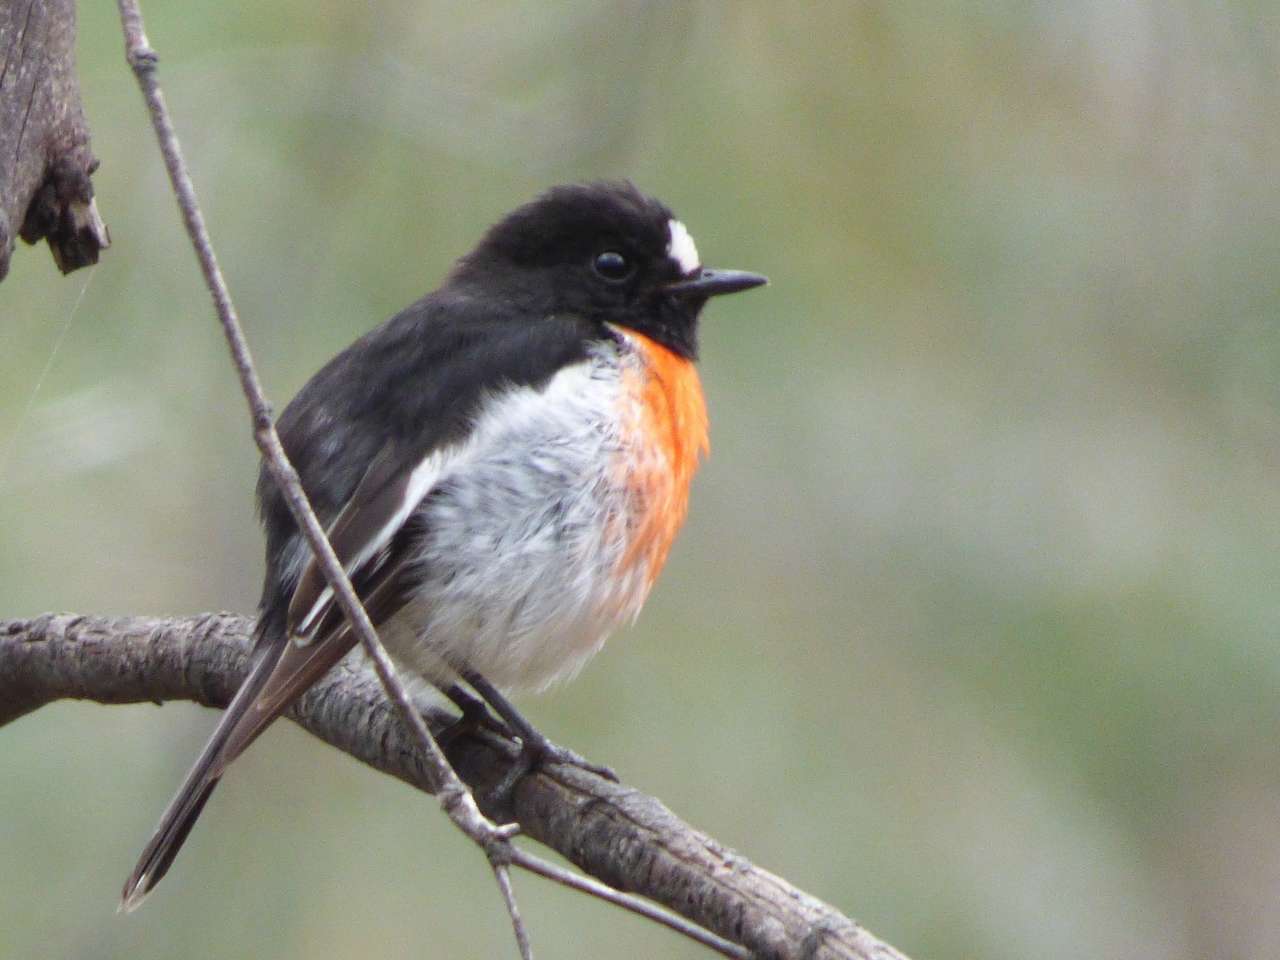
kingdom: Animalia
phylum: Chordata
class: Aves
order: Passeriformes
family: Petroicidae
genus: Petroica
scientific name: Petroica boodang
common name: Scarlet robin
